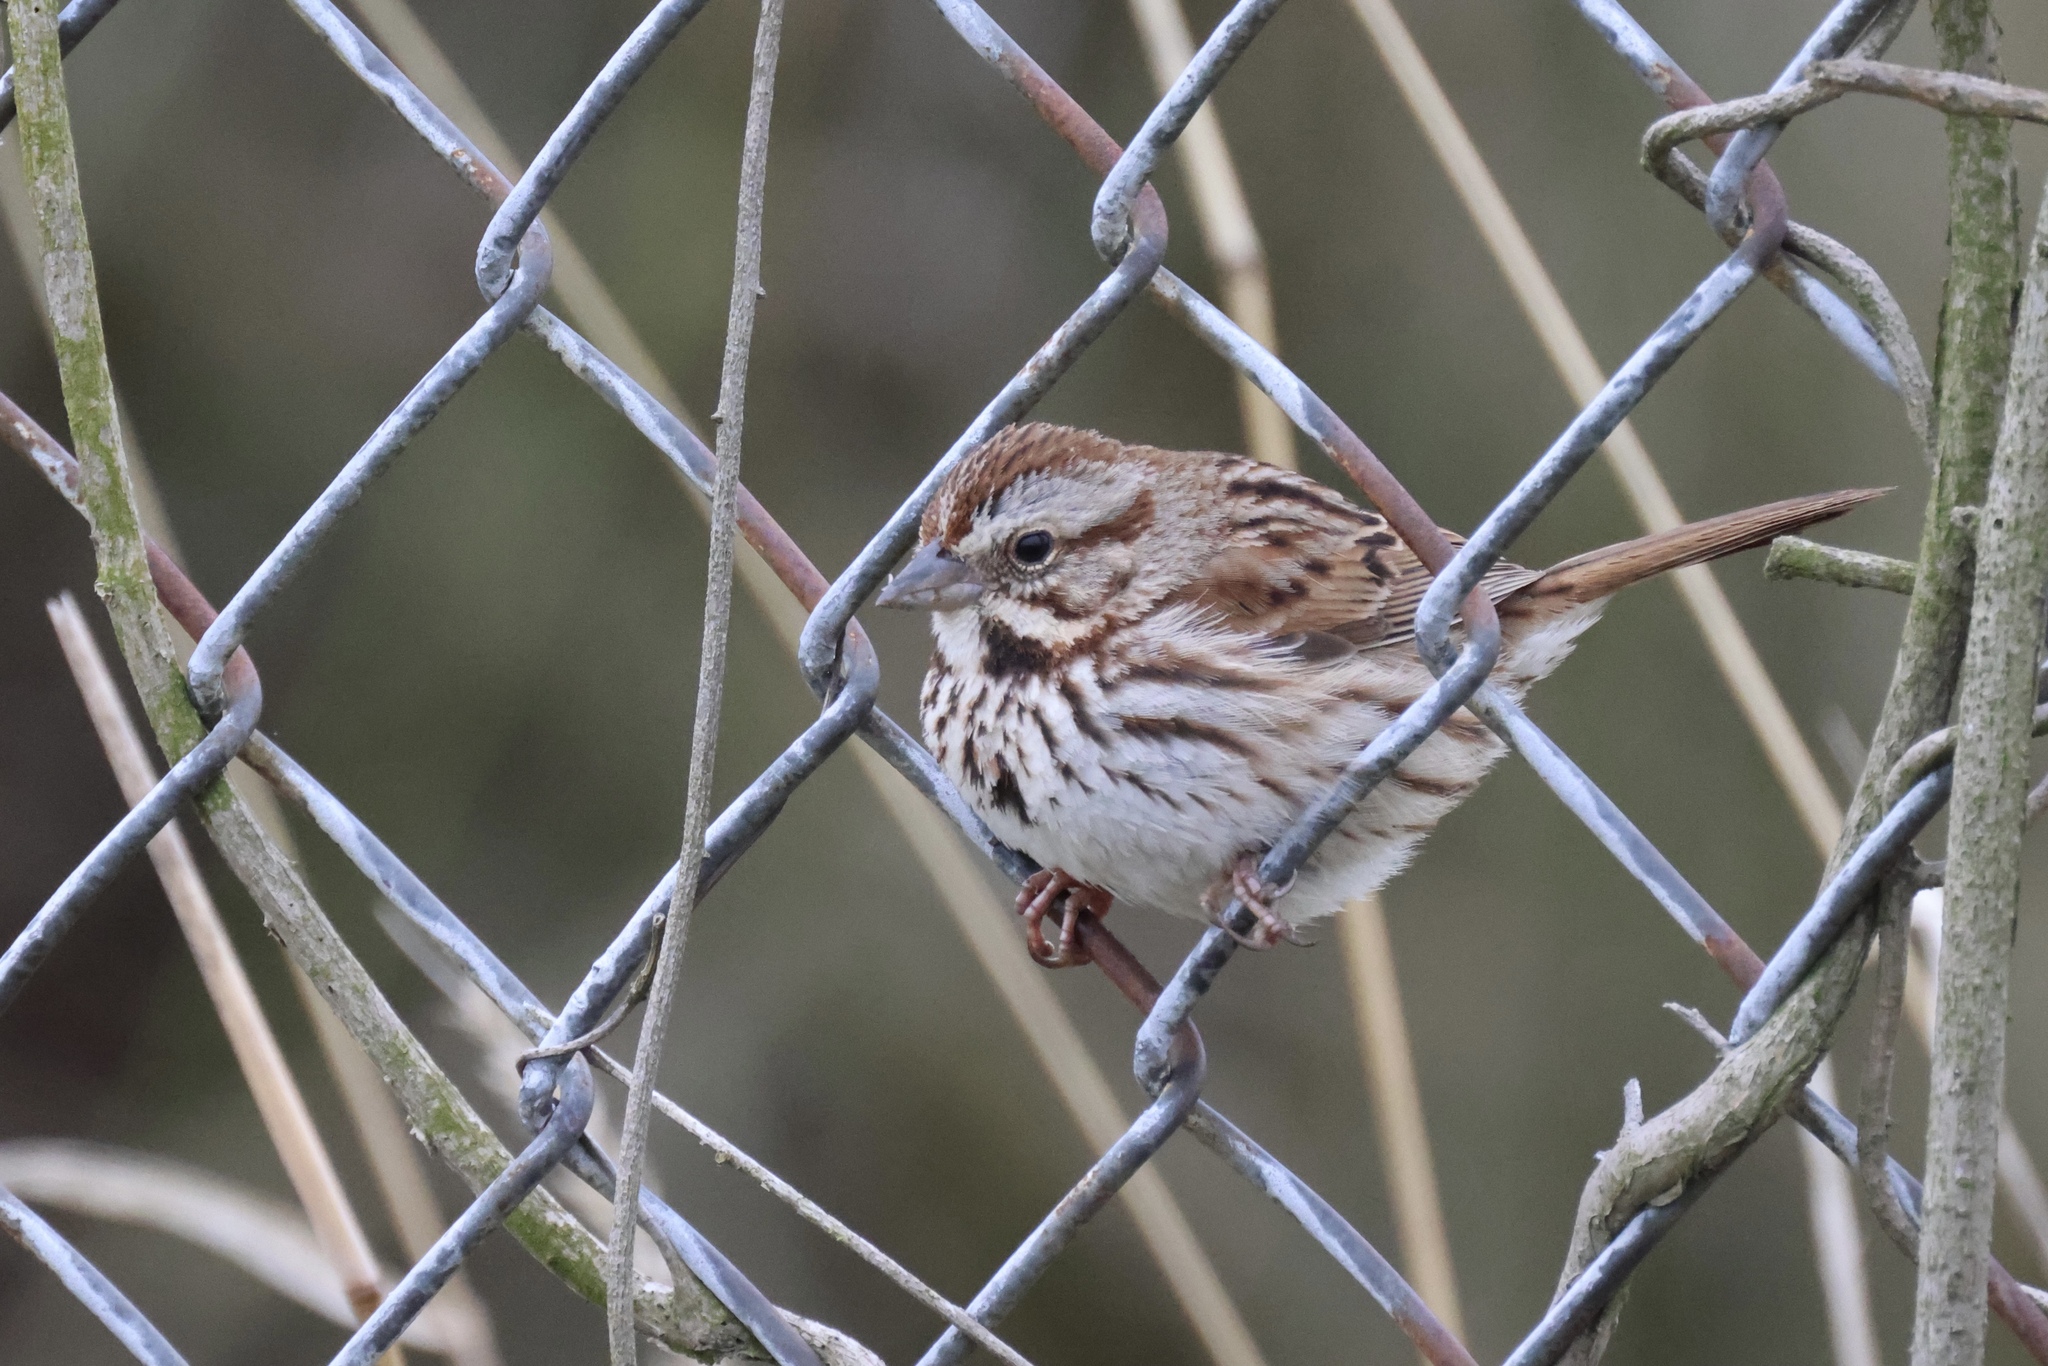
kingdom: Animalia
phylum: Chordata
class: Aves
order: Passeriformes
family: Passerellidae
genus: Melospiza
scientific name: Melospiza melodia
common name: Song sparrow
